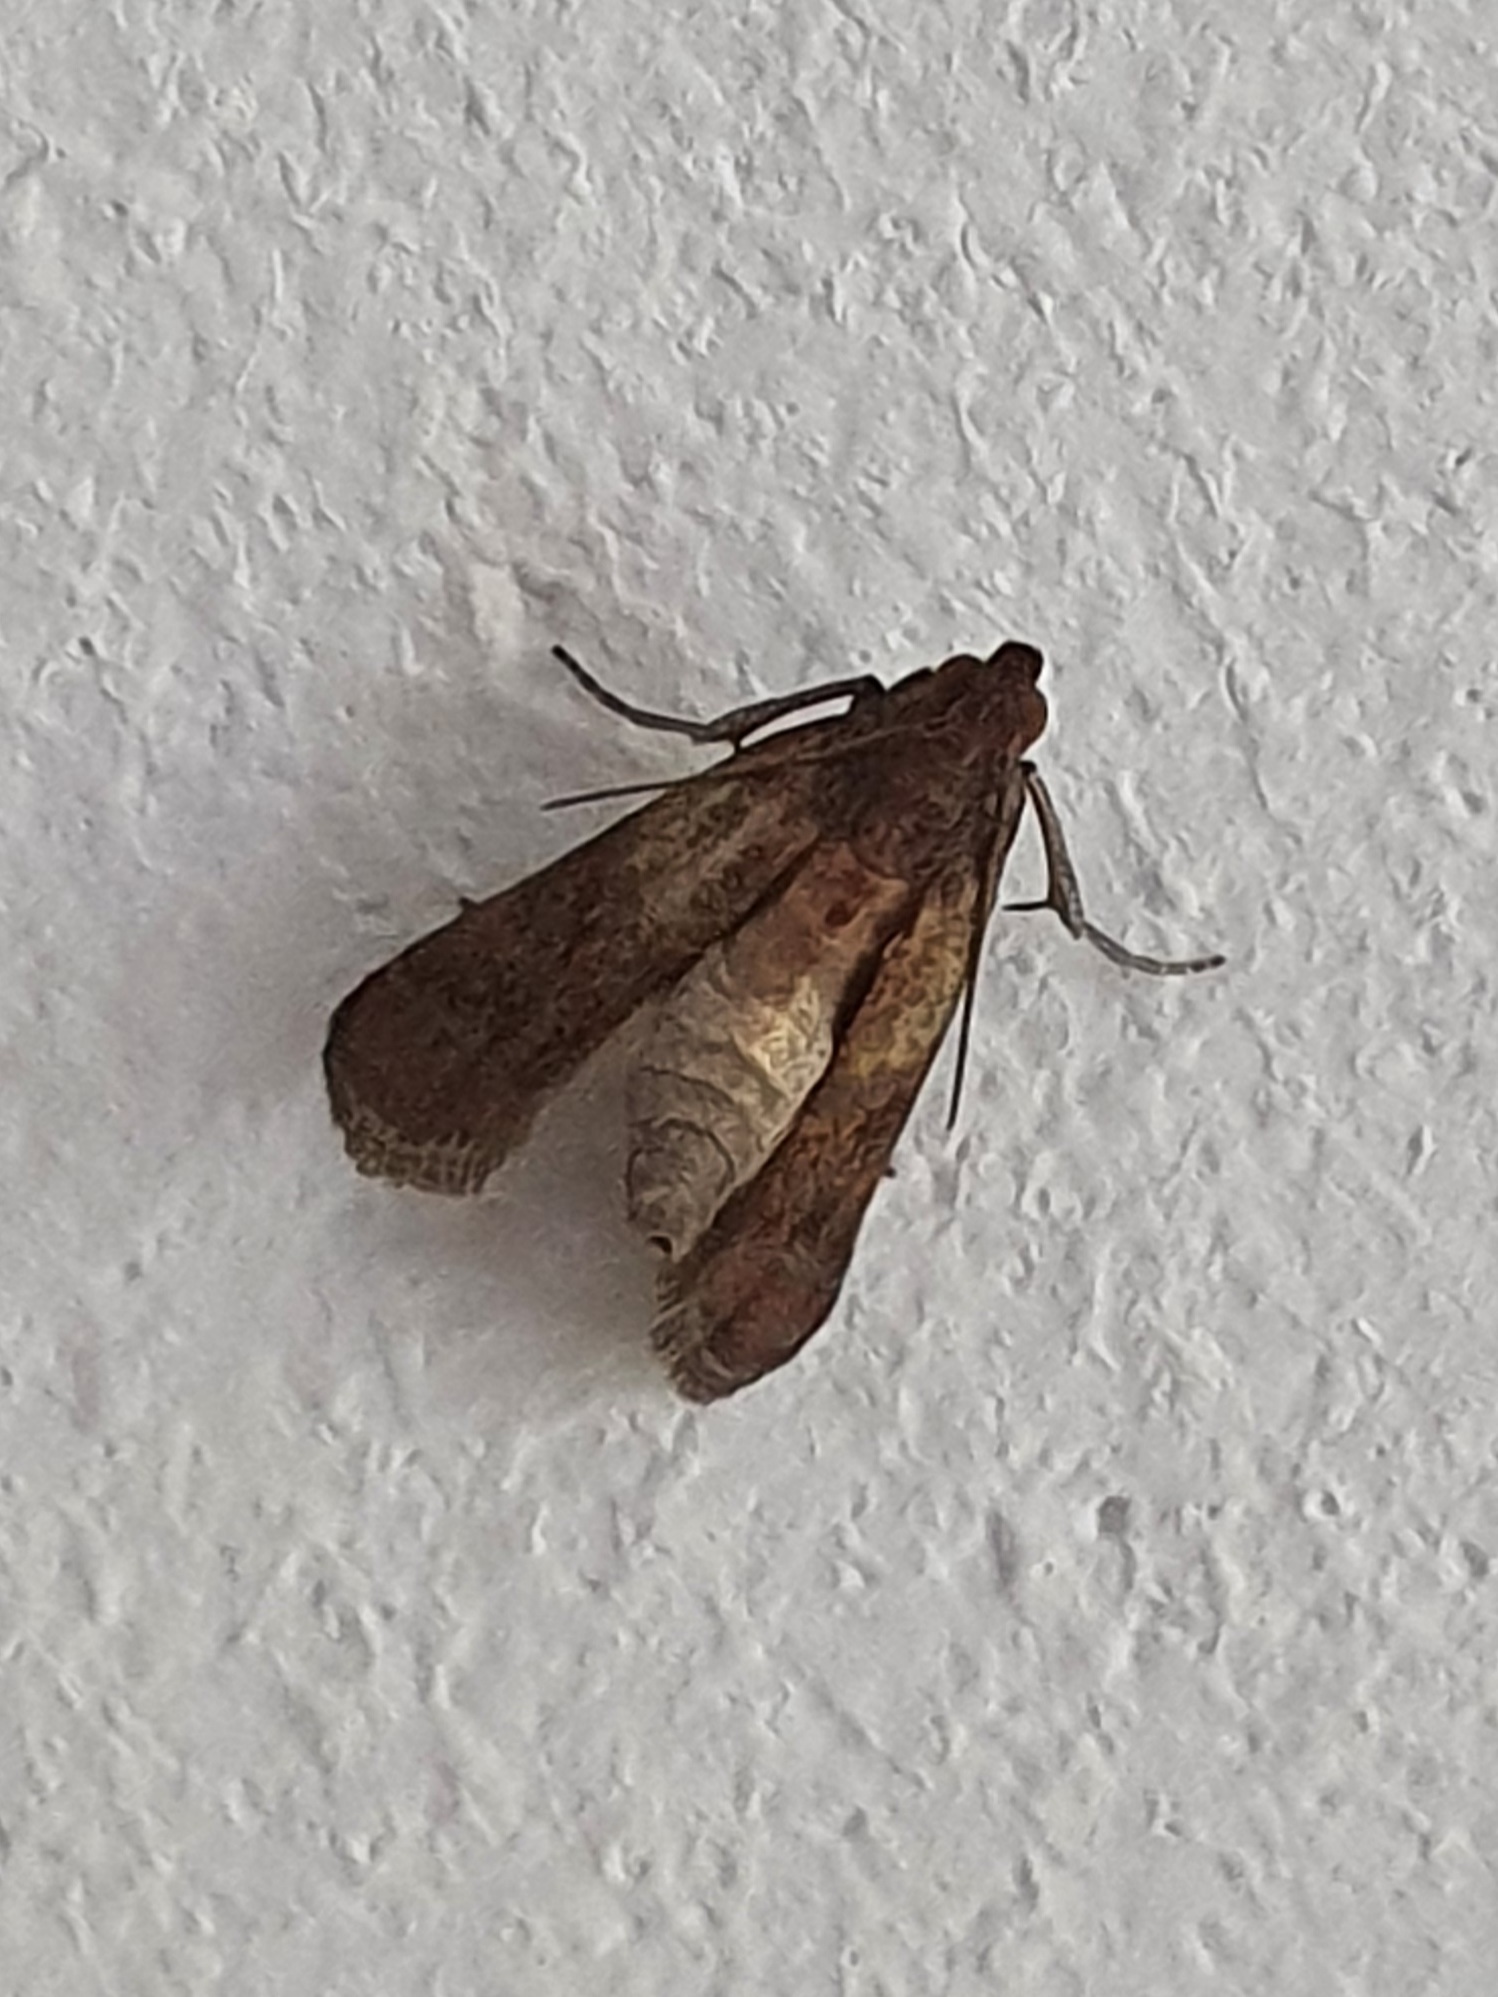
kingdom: Animalia
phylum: Arthropoda
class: Insecta
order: Lepidoptera
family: Pyralidae
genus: Plodia
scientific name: Plodia interpunctella
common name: Indian meal moth
